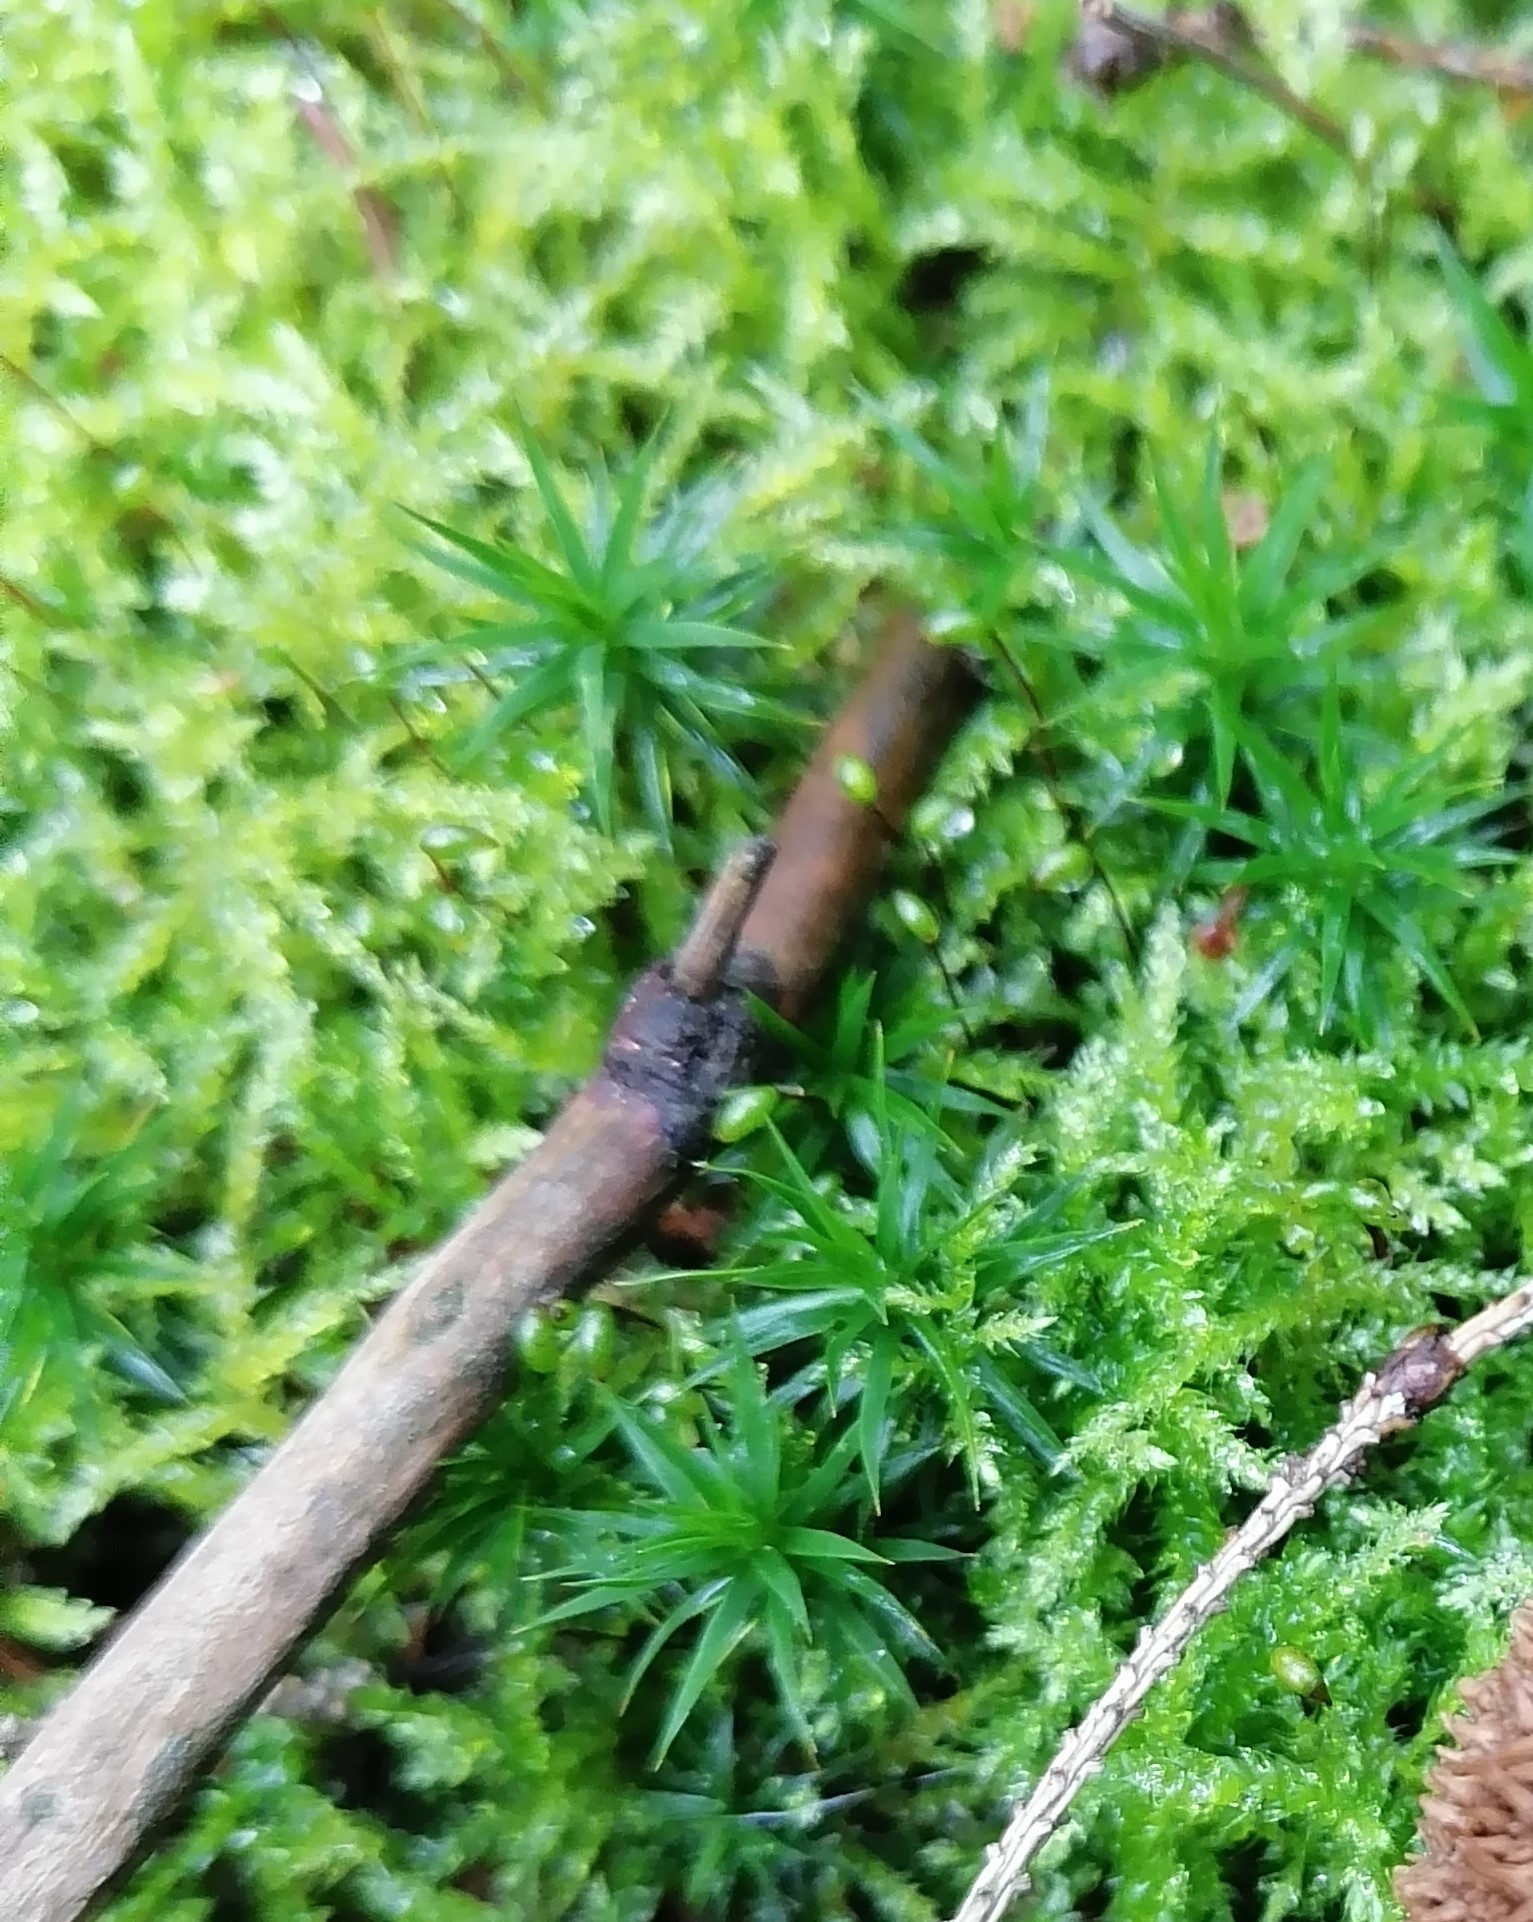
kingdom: Plantae
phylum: Bryophyta
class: Polytrichopsida
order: Polytrichales
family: Polytrichaceae
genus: Polytrichum
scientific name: Polytrichum formosum
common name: Bank haircap moss
